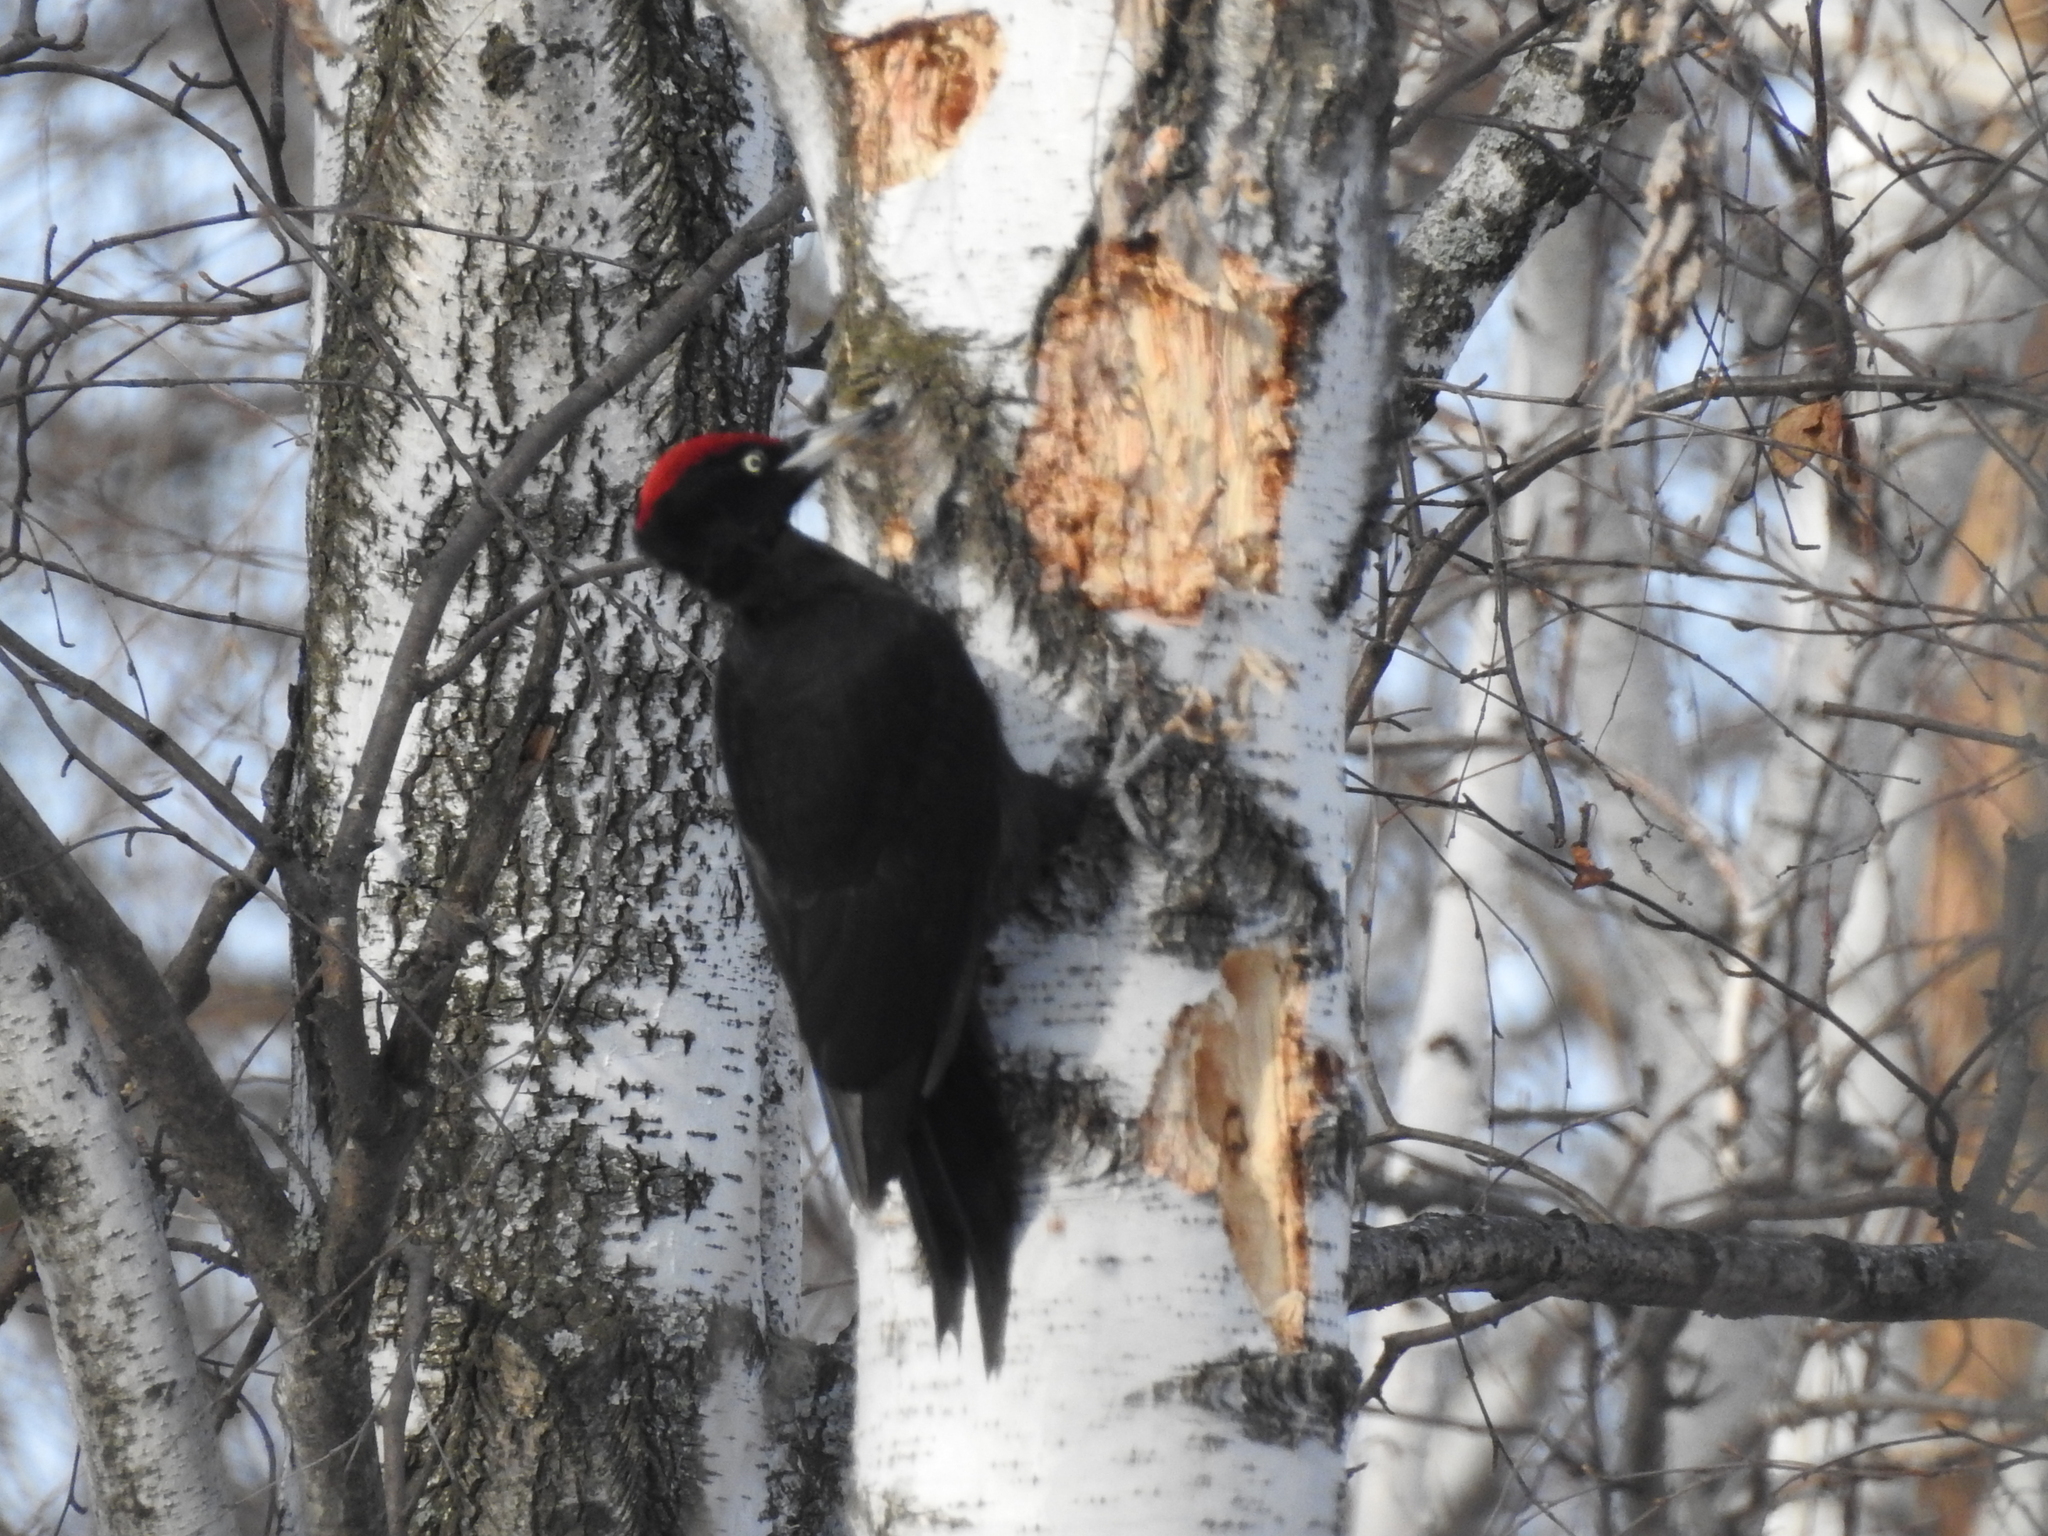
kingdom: Animalia
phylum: Chordata
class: Aves
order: Piciformes
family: Picidae
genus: Dryocopus
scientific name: Dryocopus martius
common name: Black woodpecker
